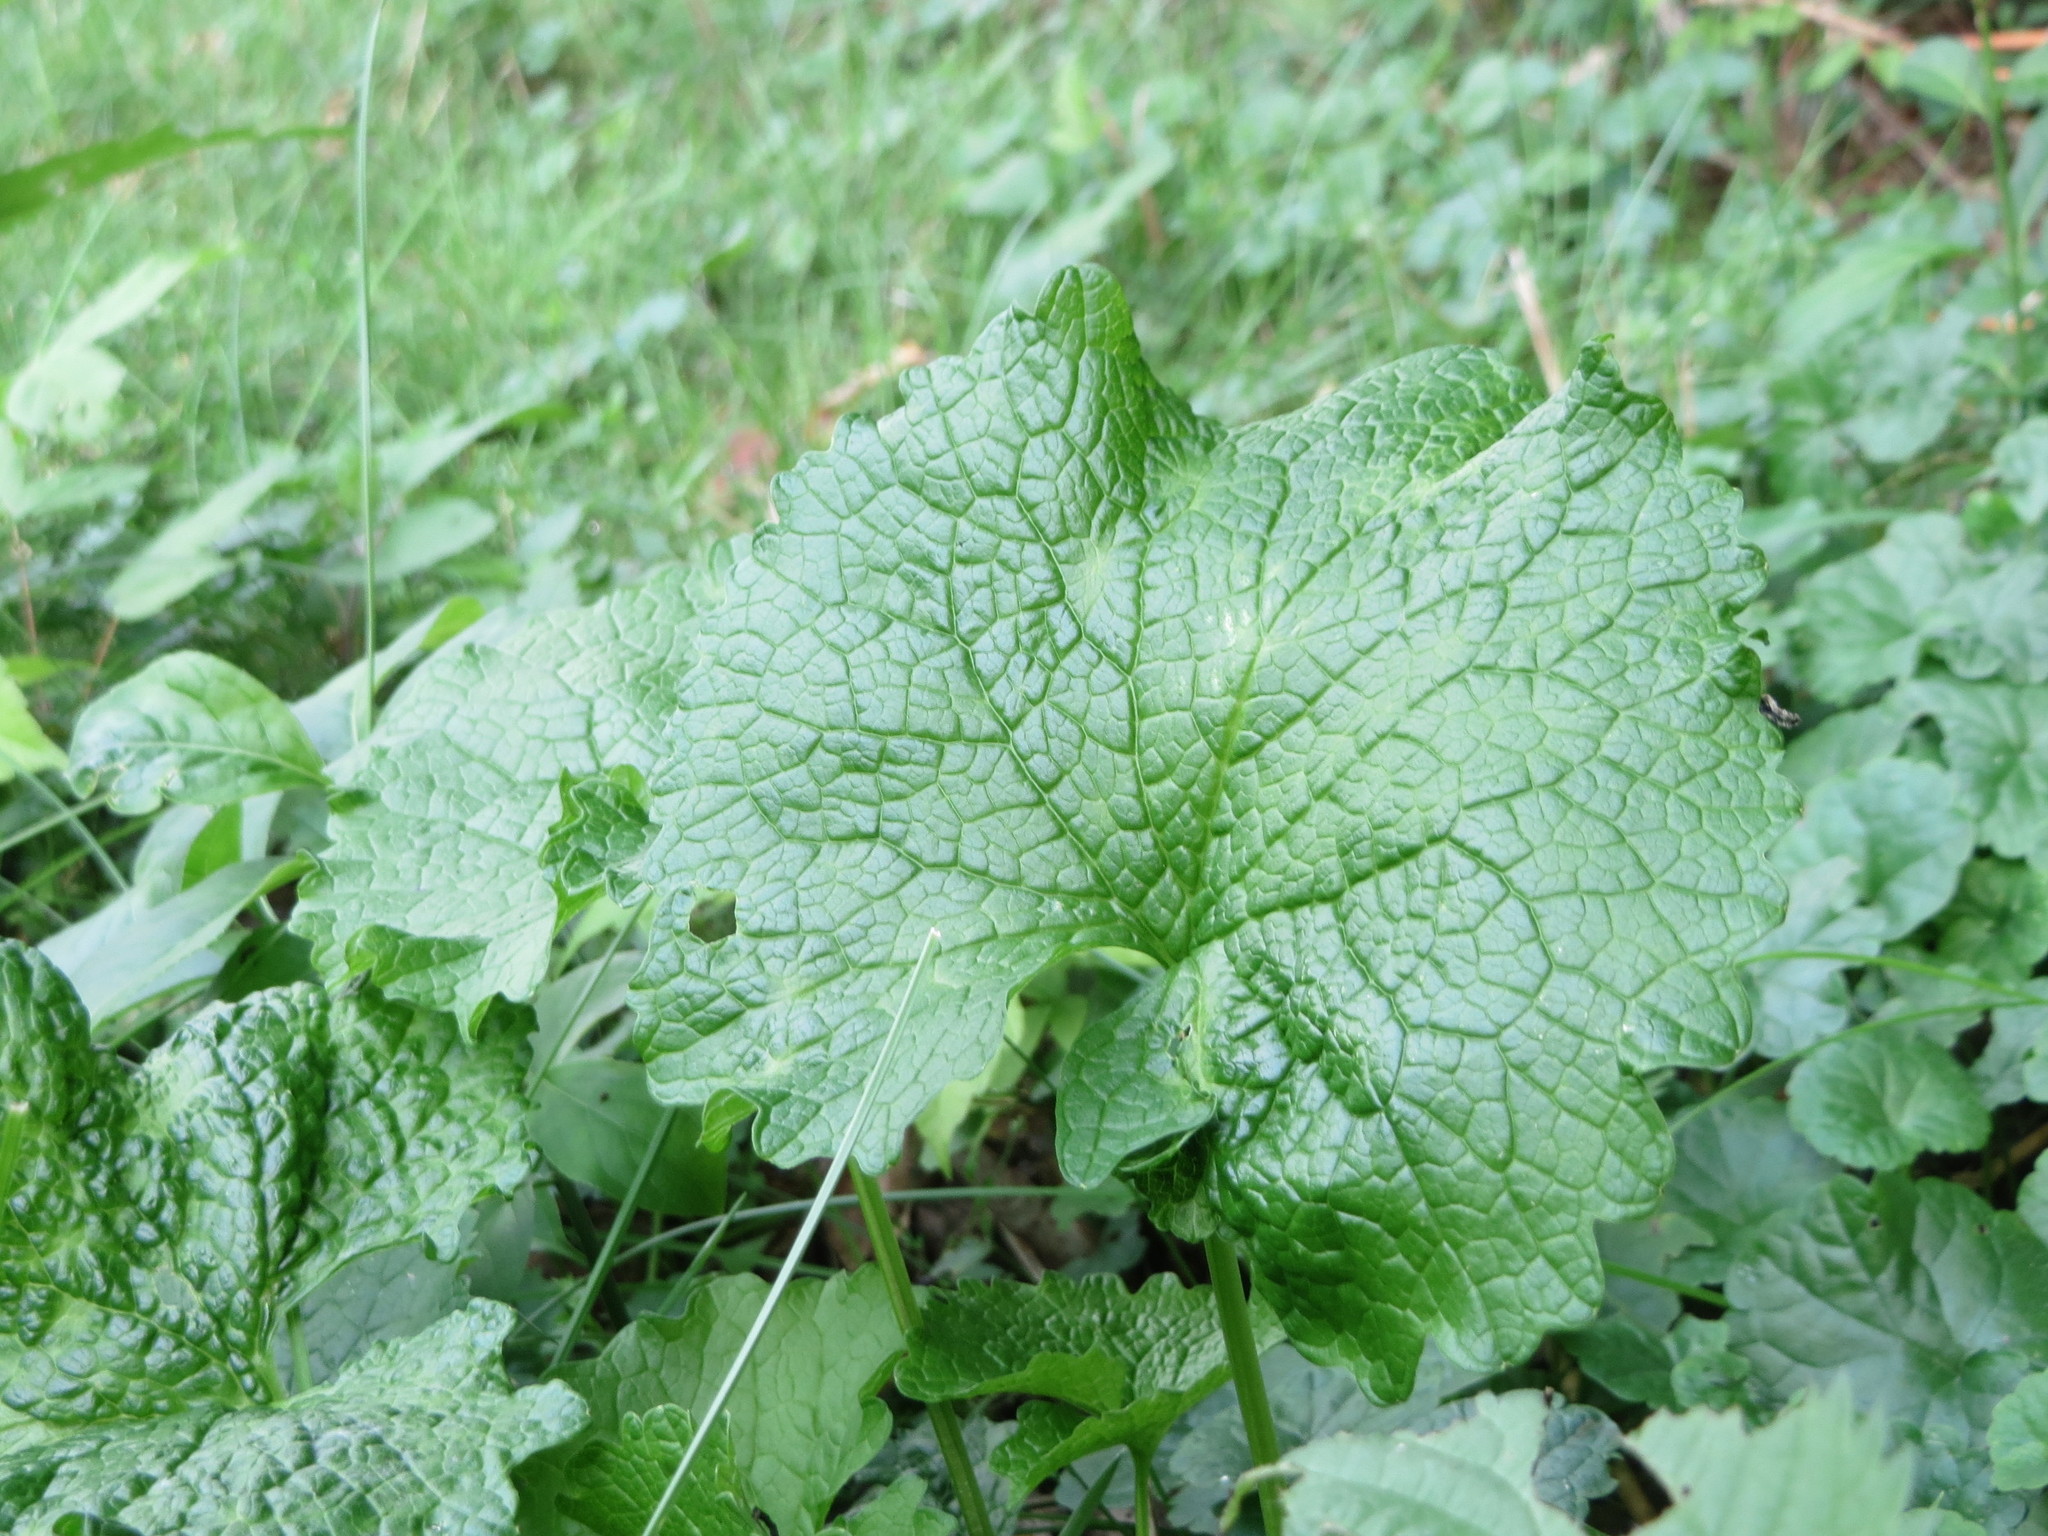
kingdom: Plantae
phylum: Tracheophyta
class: Magnoliopsida
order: Brassicales
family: Brassicaceae
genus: Alliaria
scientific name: Alliaria petiolata
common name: Garlic mustard
